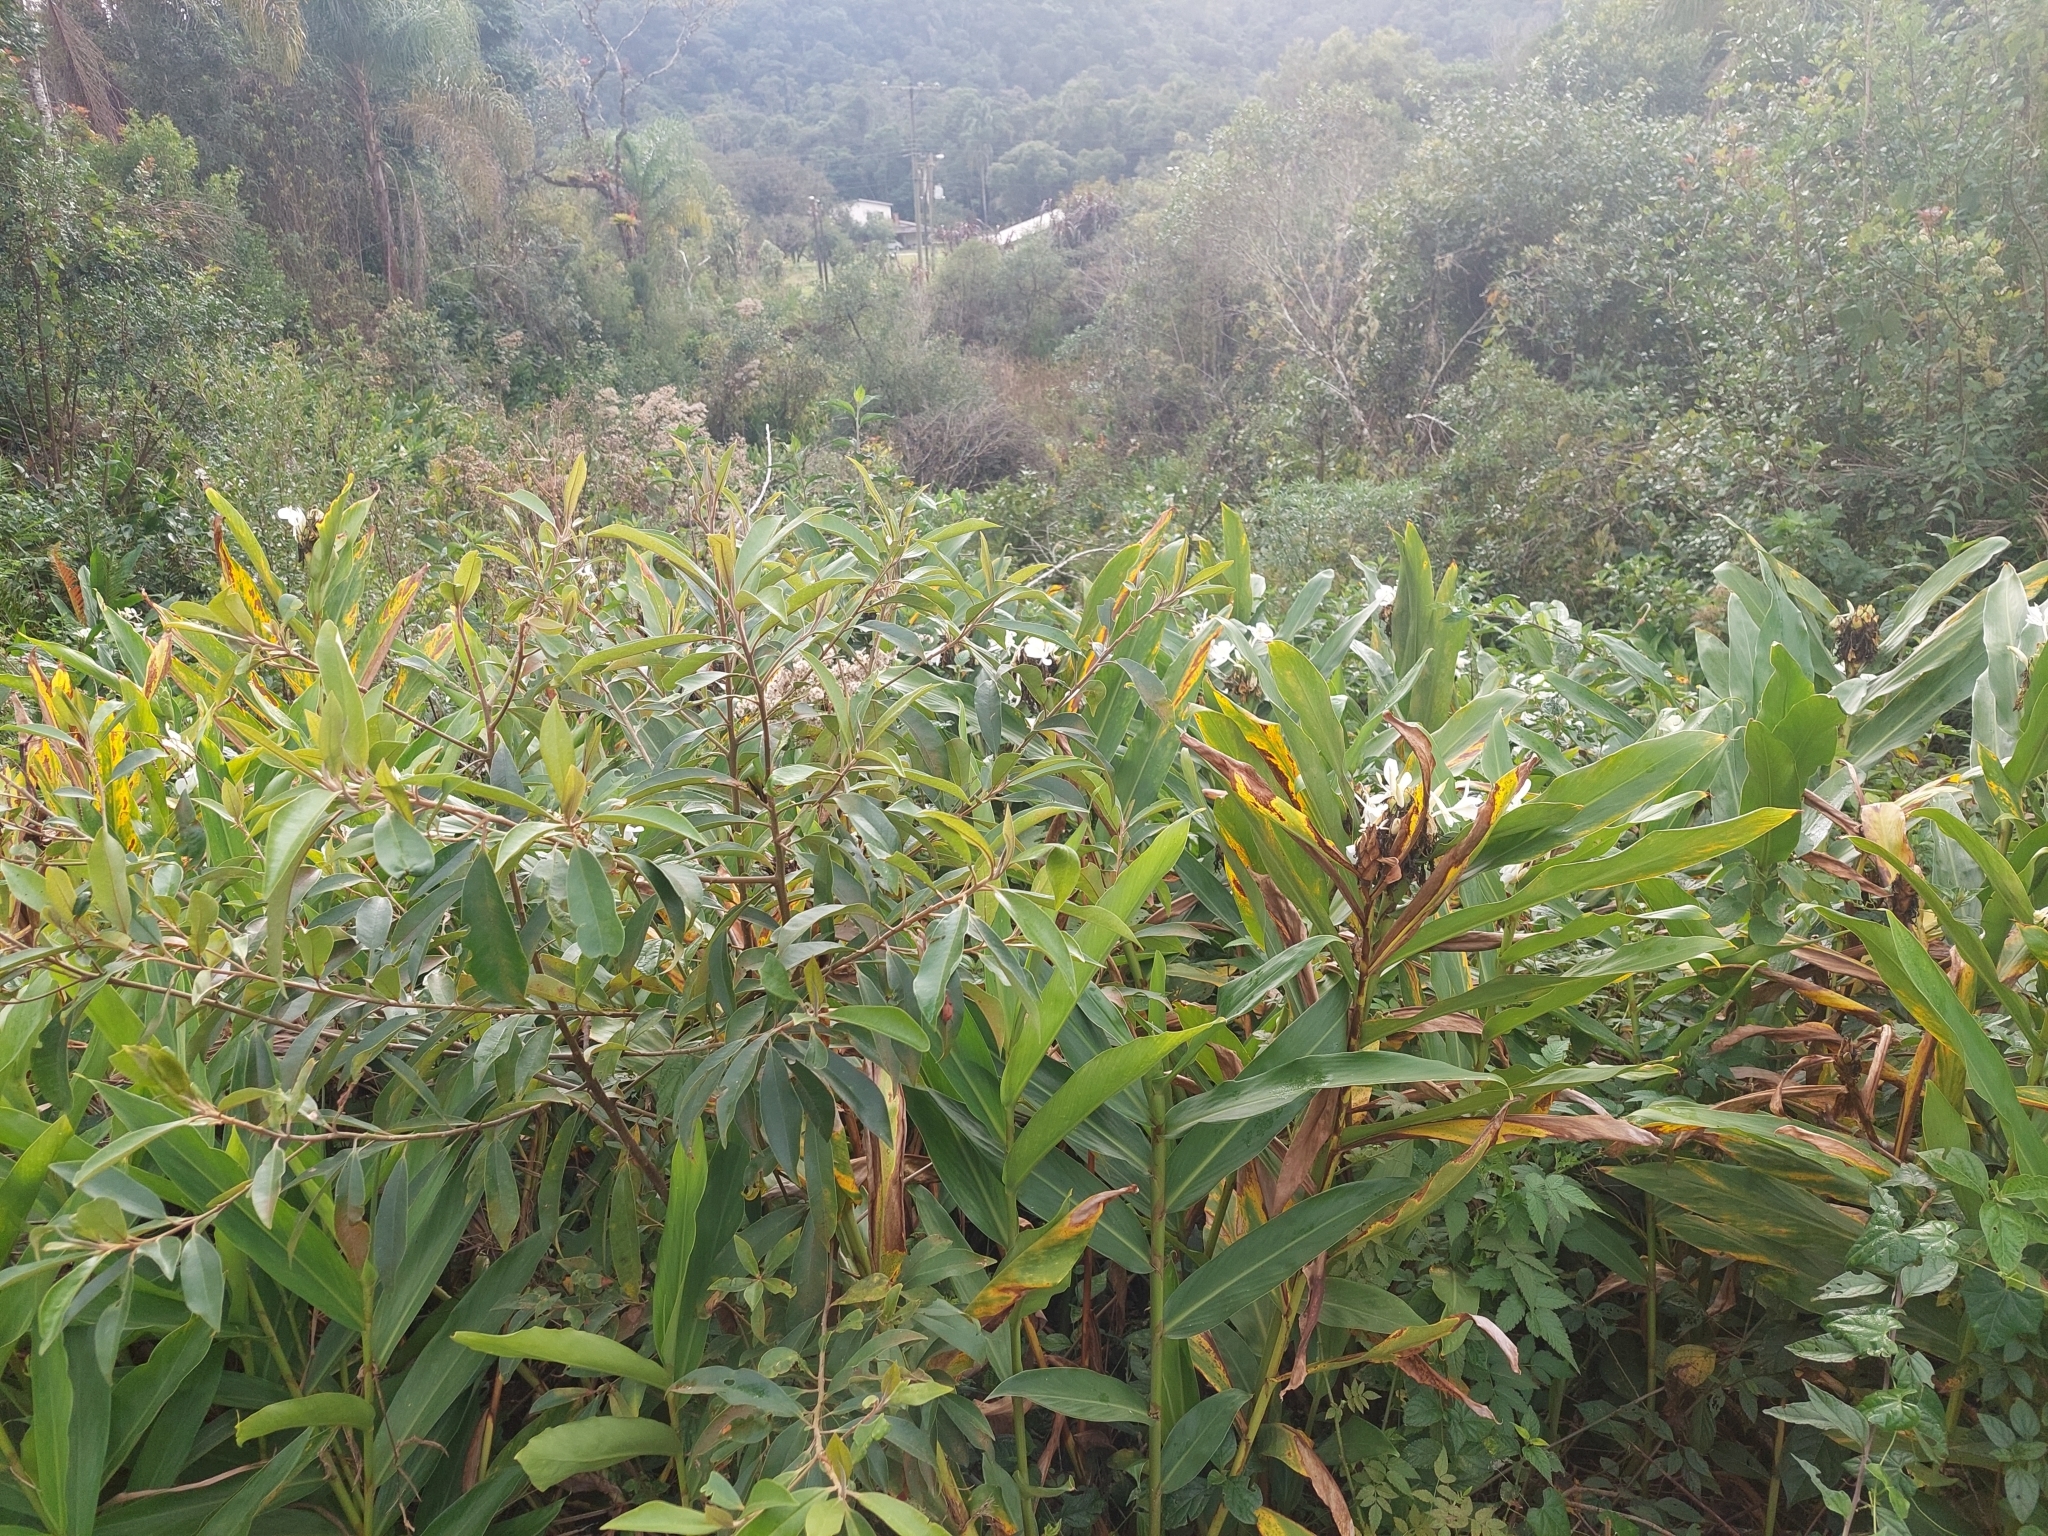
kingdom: Plantae
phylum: Tracheophyta
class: Liliopsida
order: Zingiberales
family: Zingiberaceae
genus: Hedychium
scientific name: Hedychium coronarium
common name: White garland-lily
